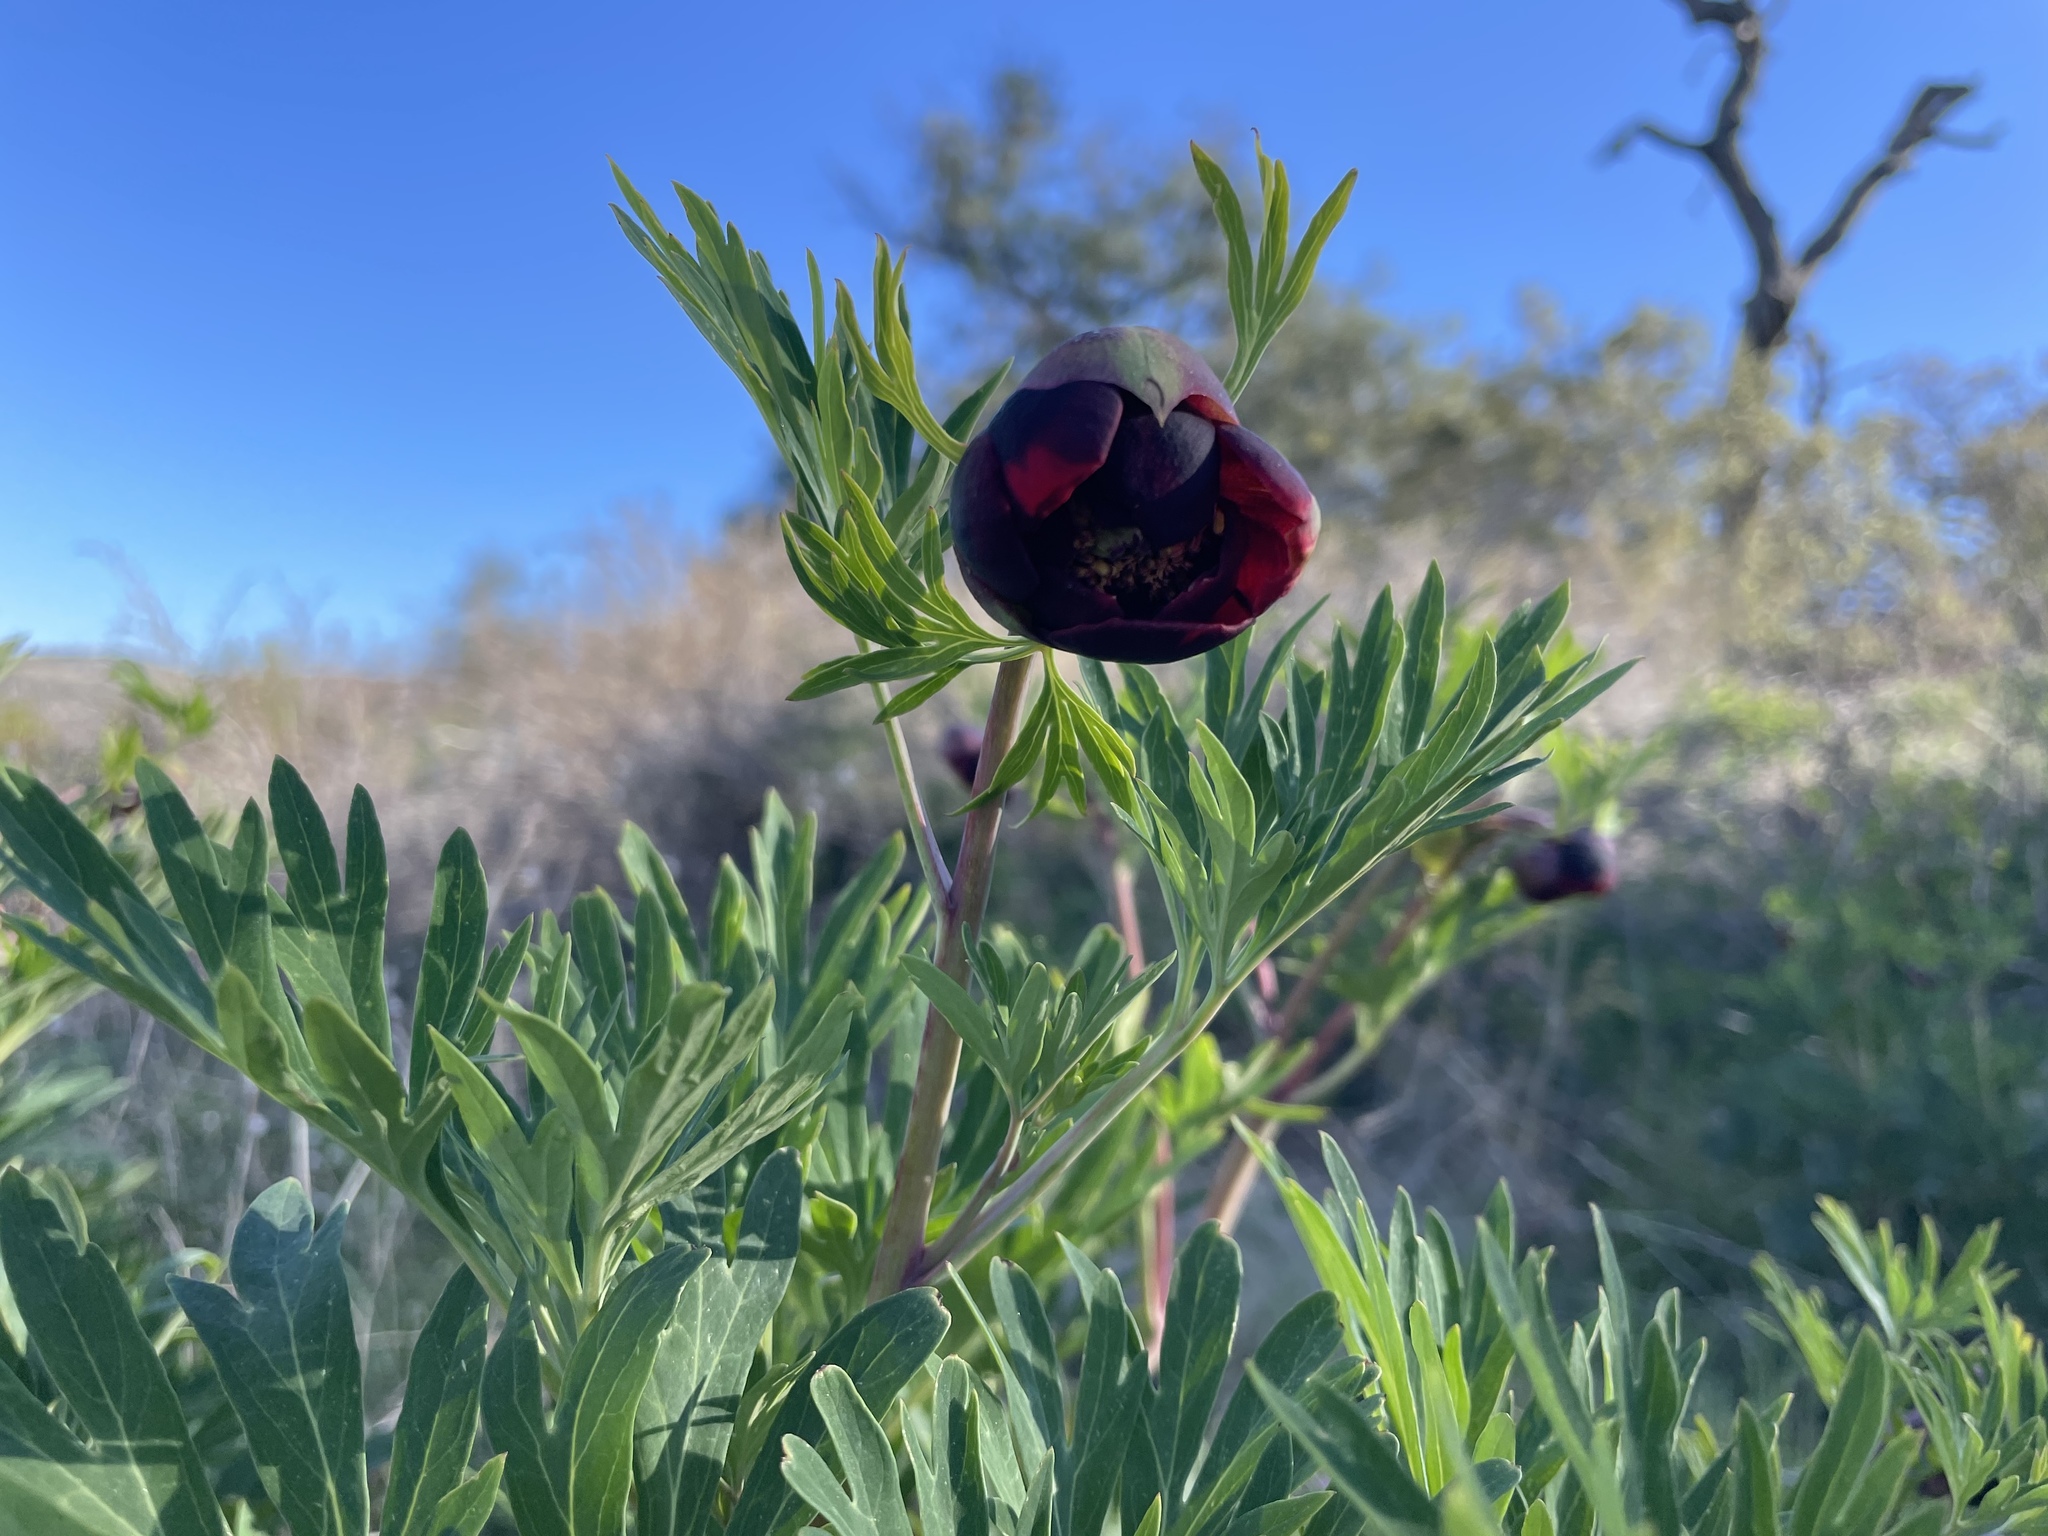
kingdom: Plantae
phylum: Tracheophyta
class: Magnoliopsida
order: Saxifragales
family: Paeoniaceae
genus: Paeonia
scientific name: Paeonia californica
